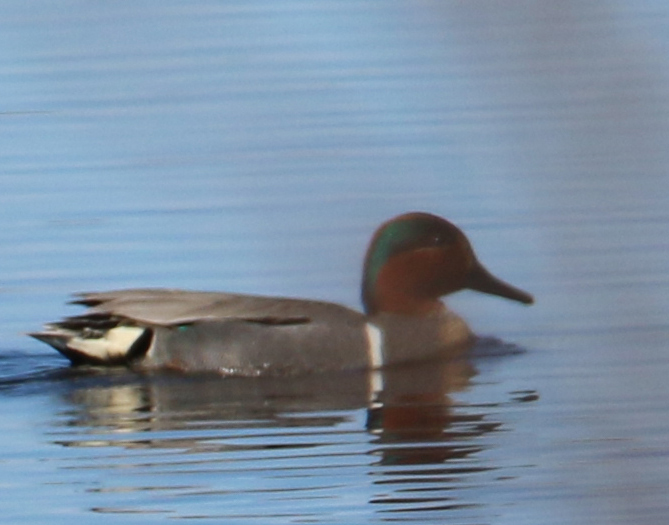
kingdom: Animalia
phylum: Chordata
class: Aves
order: Anseriformes
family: Anatidae
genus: Anas
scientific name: Anas carolinensis
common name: Green-winged teal
